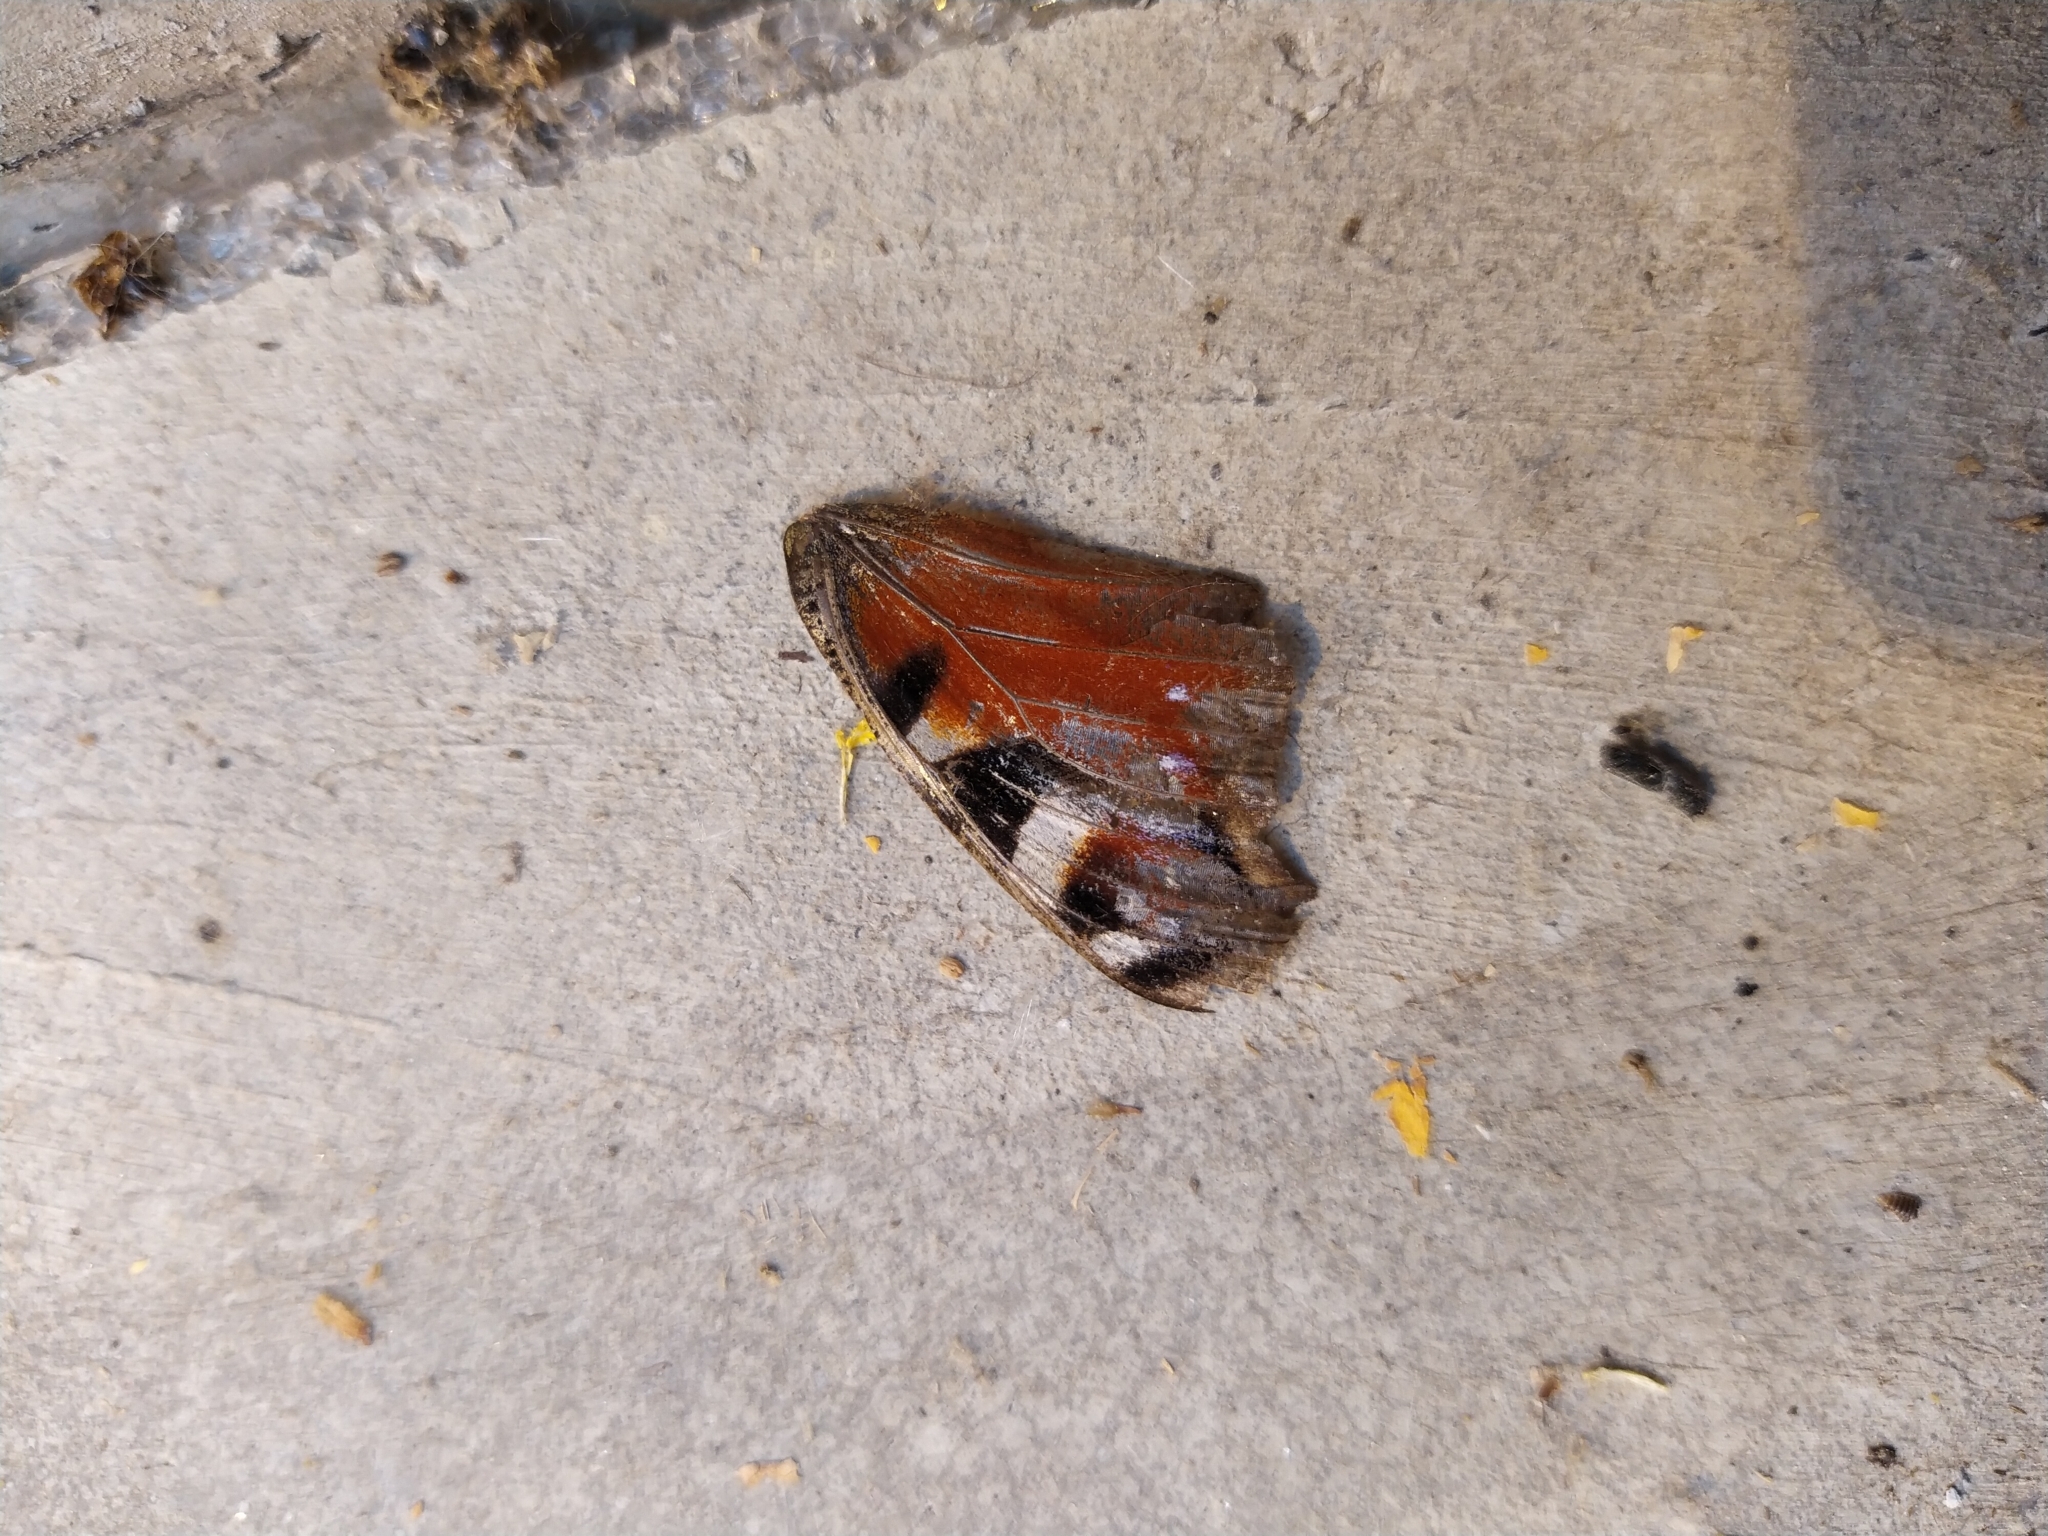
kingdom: Animalia
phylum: Arthropoda
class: Insecta
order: Lepidoptera
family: Nymphalidae
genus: Aglais
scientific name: Aglais io
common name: Peacock
